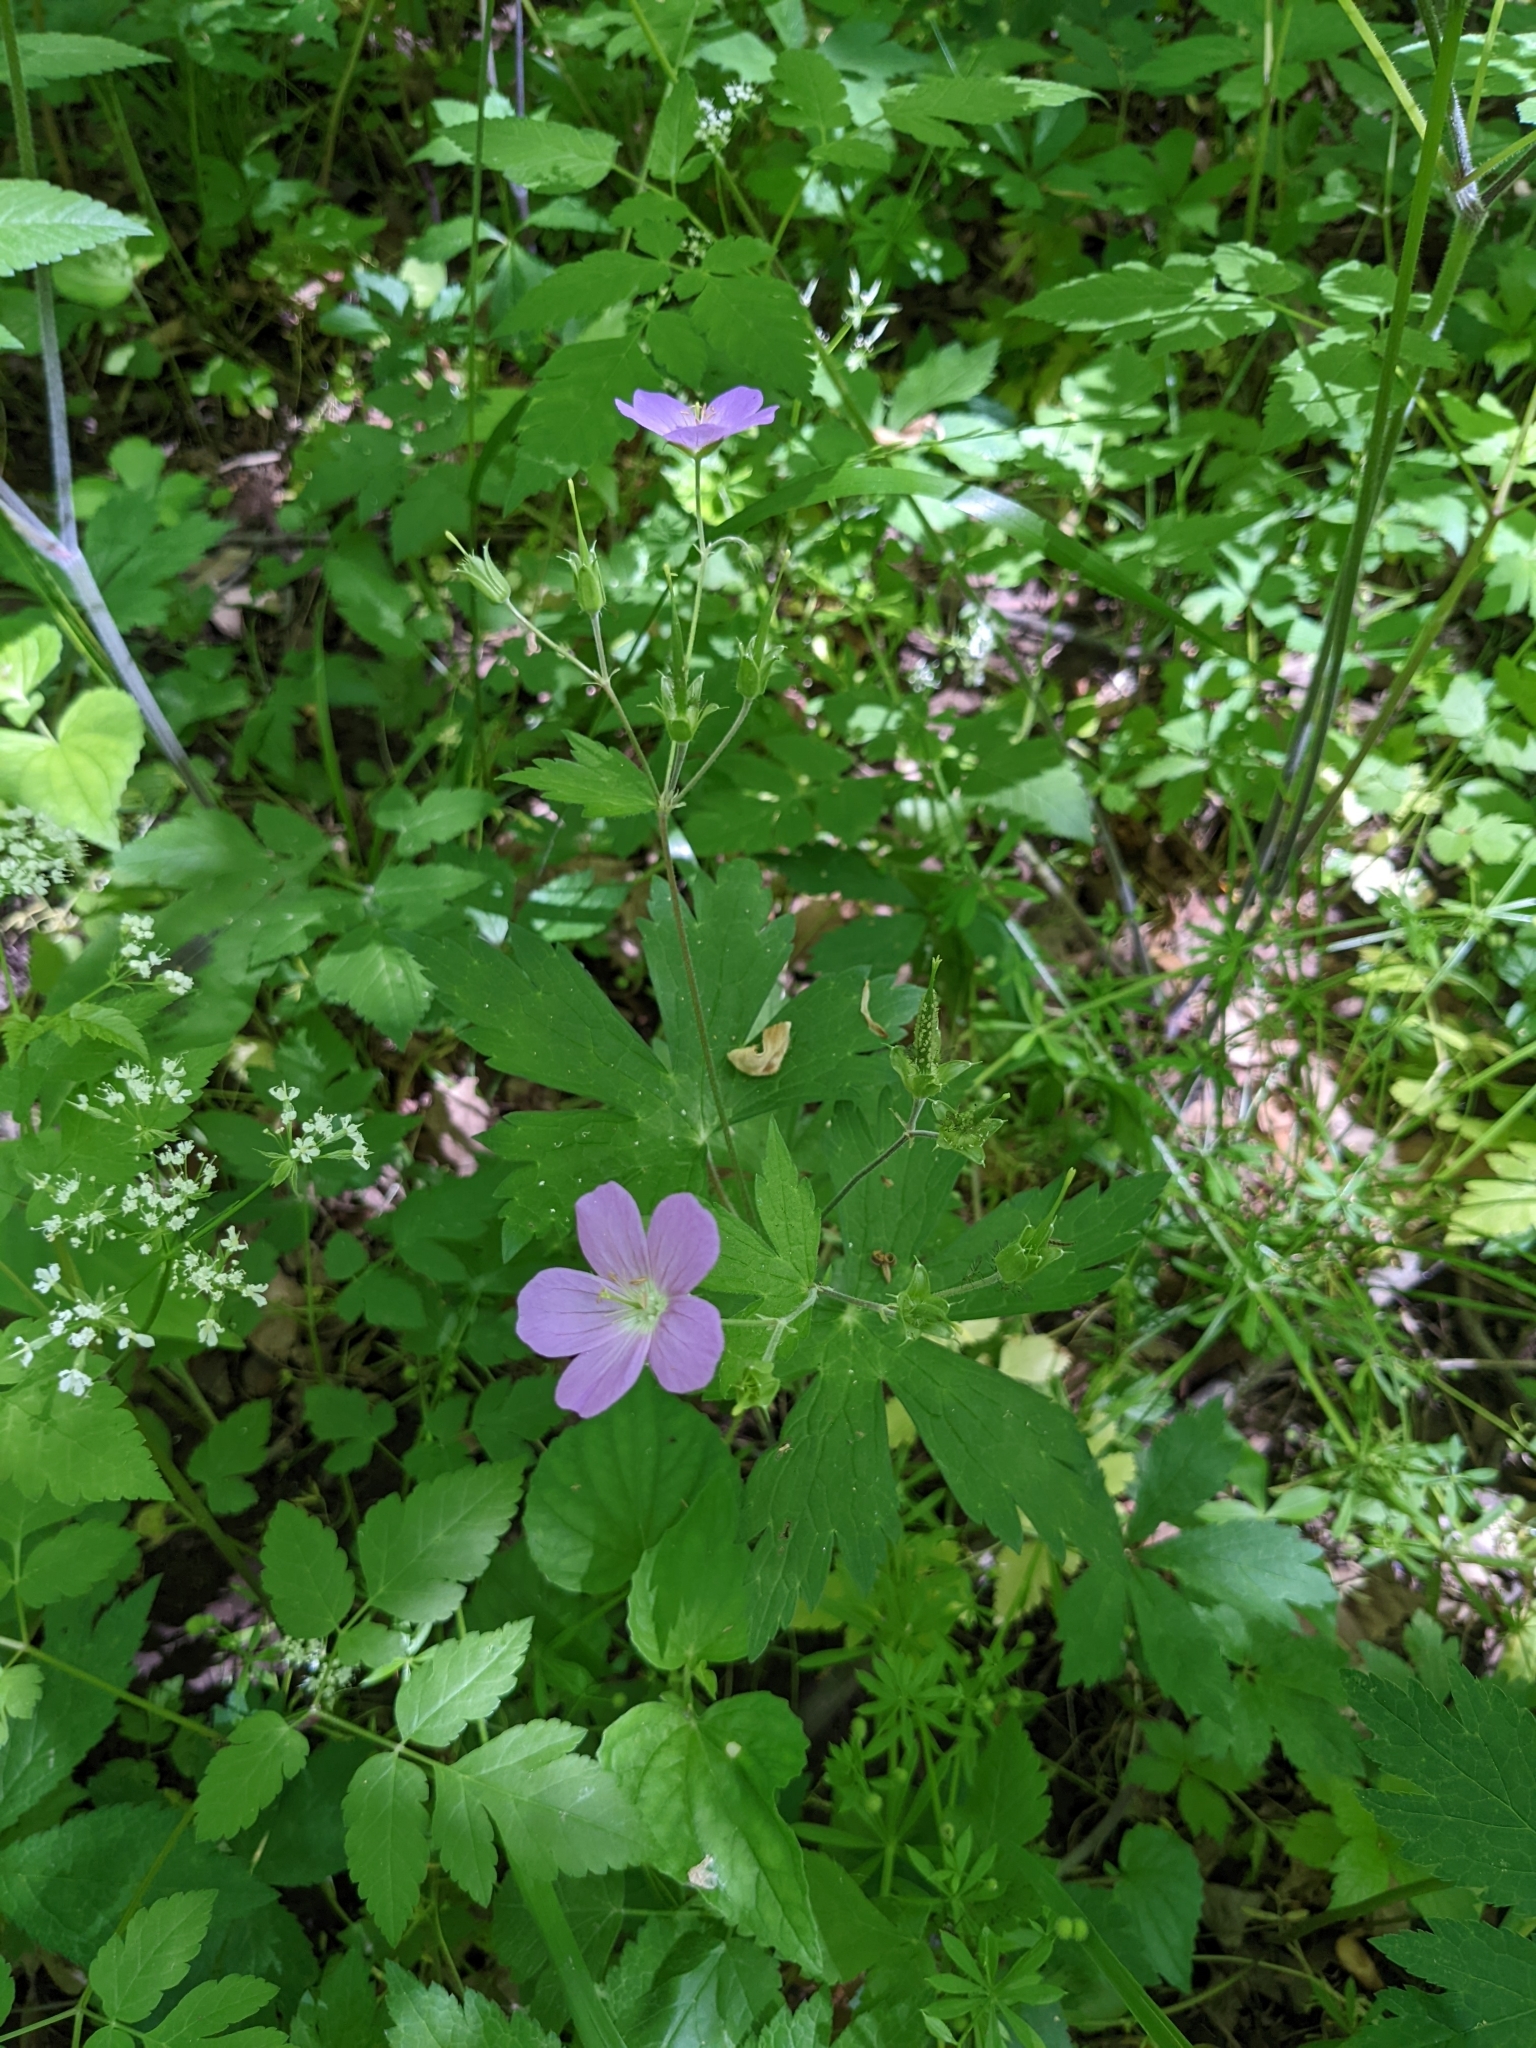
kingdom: Plantae
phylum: Tracheophyta
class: Magnoliopsida
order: Geraniales
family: Geraniaceae
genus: Geranium
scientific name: Geranium maculatum
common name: Spotted geranium
